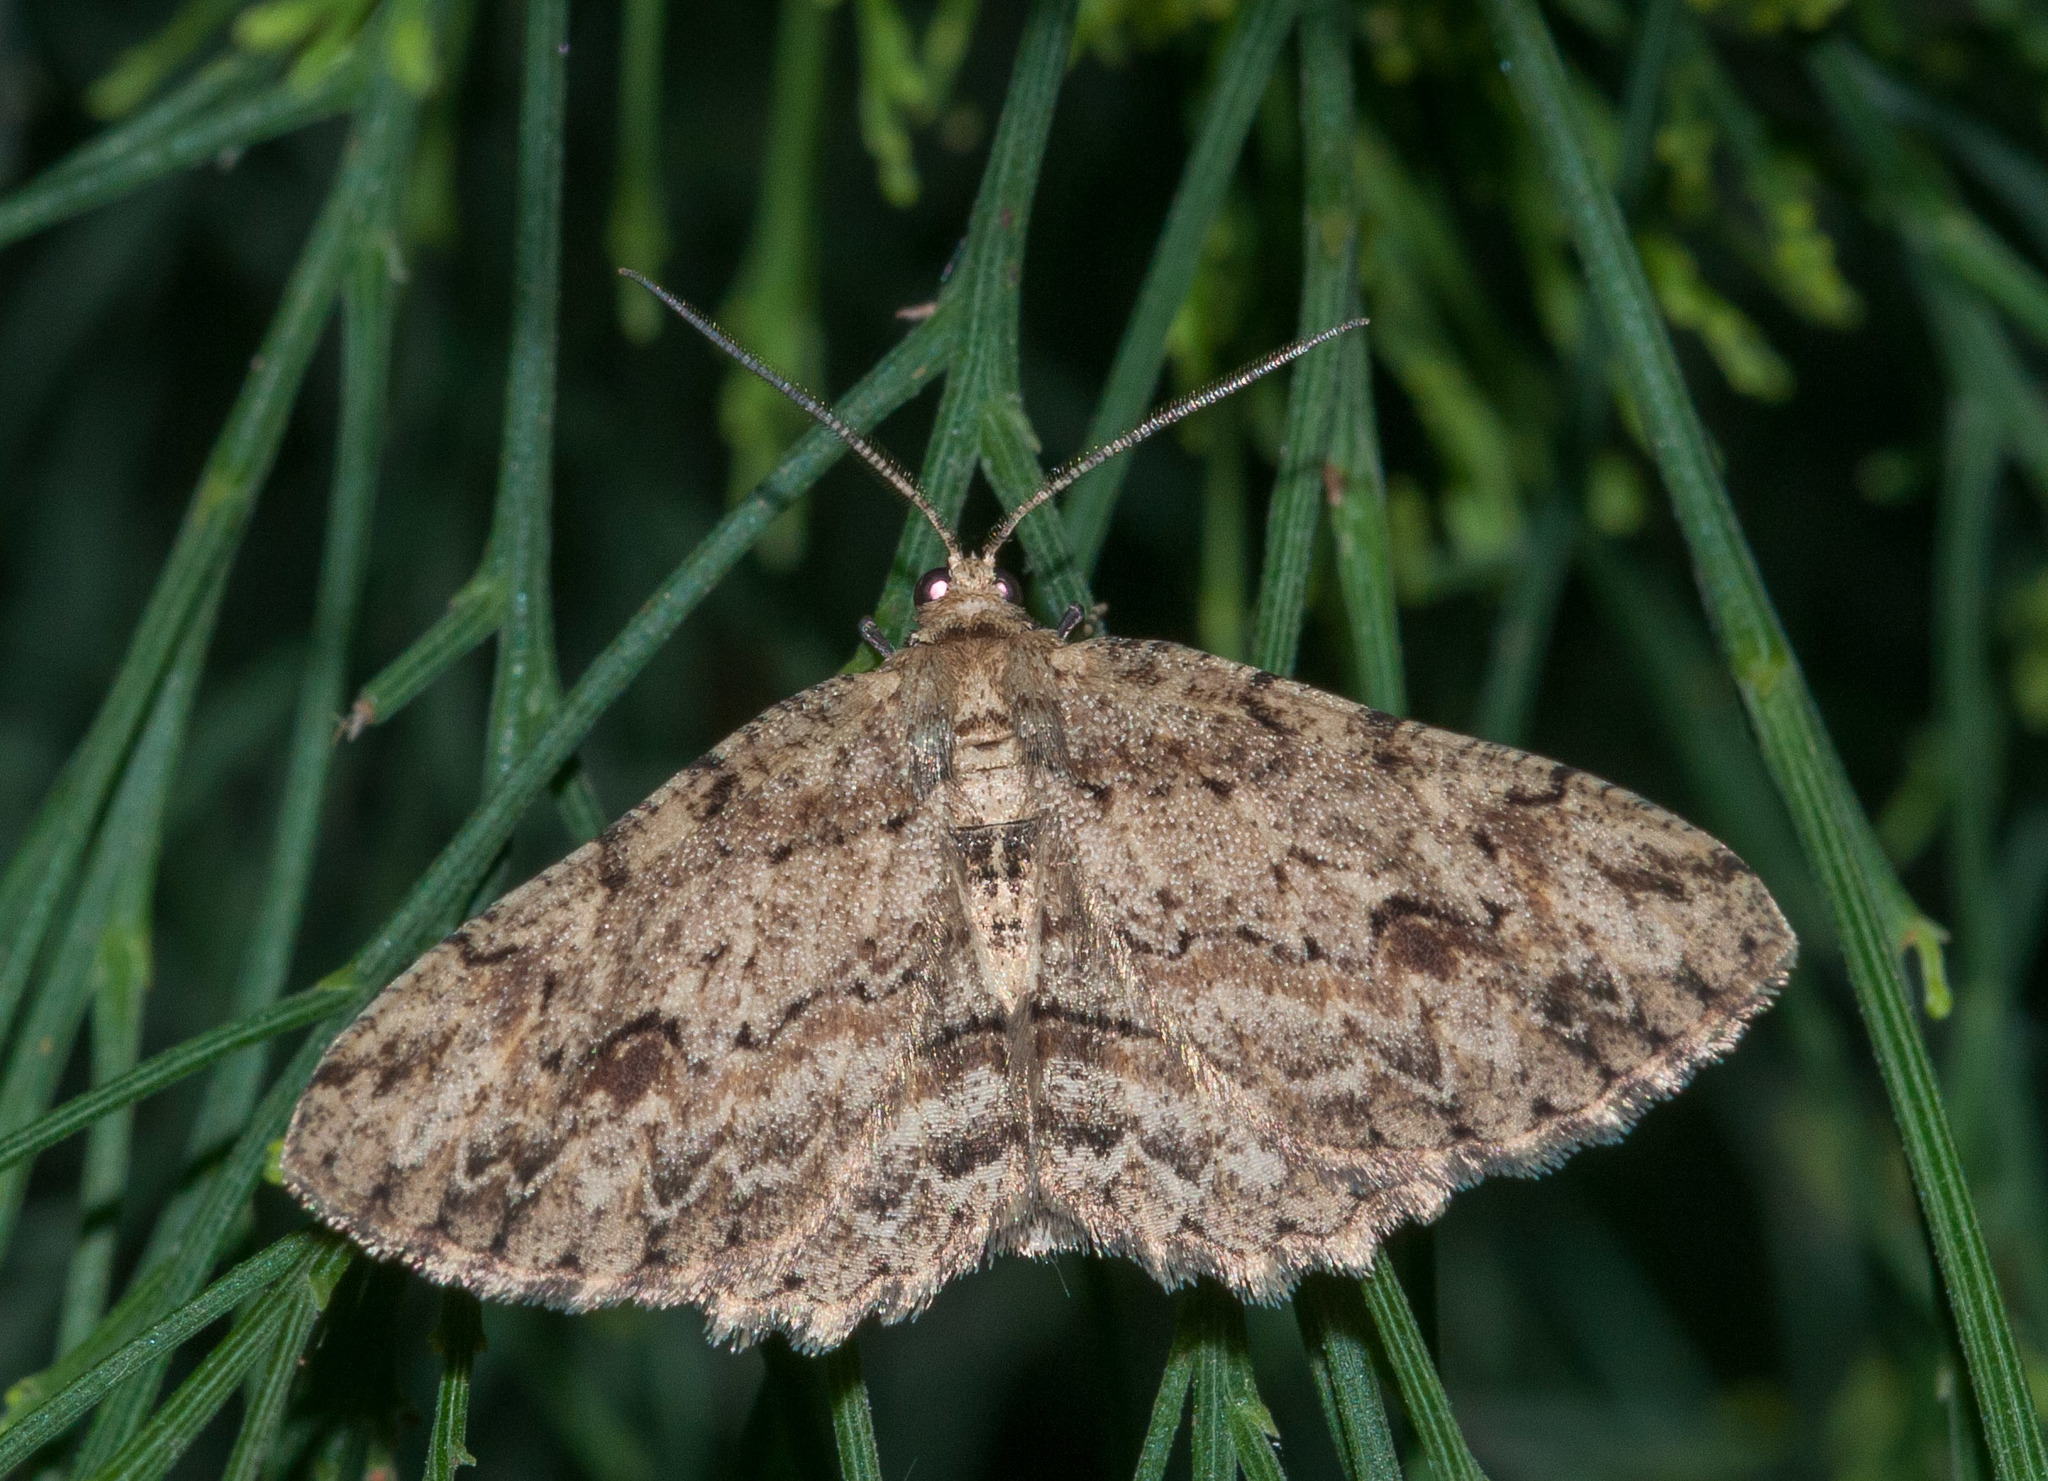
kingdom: Animalia
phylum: Arthropoda
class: Insecta
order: Lepidoptera
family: Geometridae
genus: Ectropis
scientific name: Ectropis bispinaria
